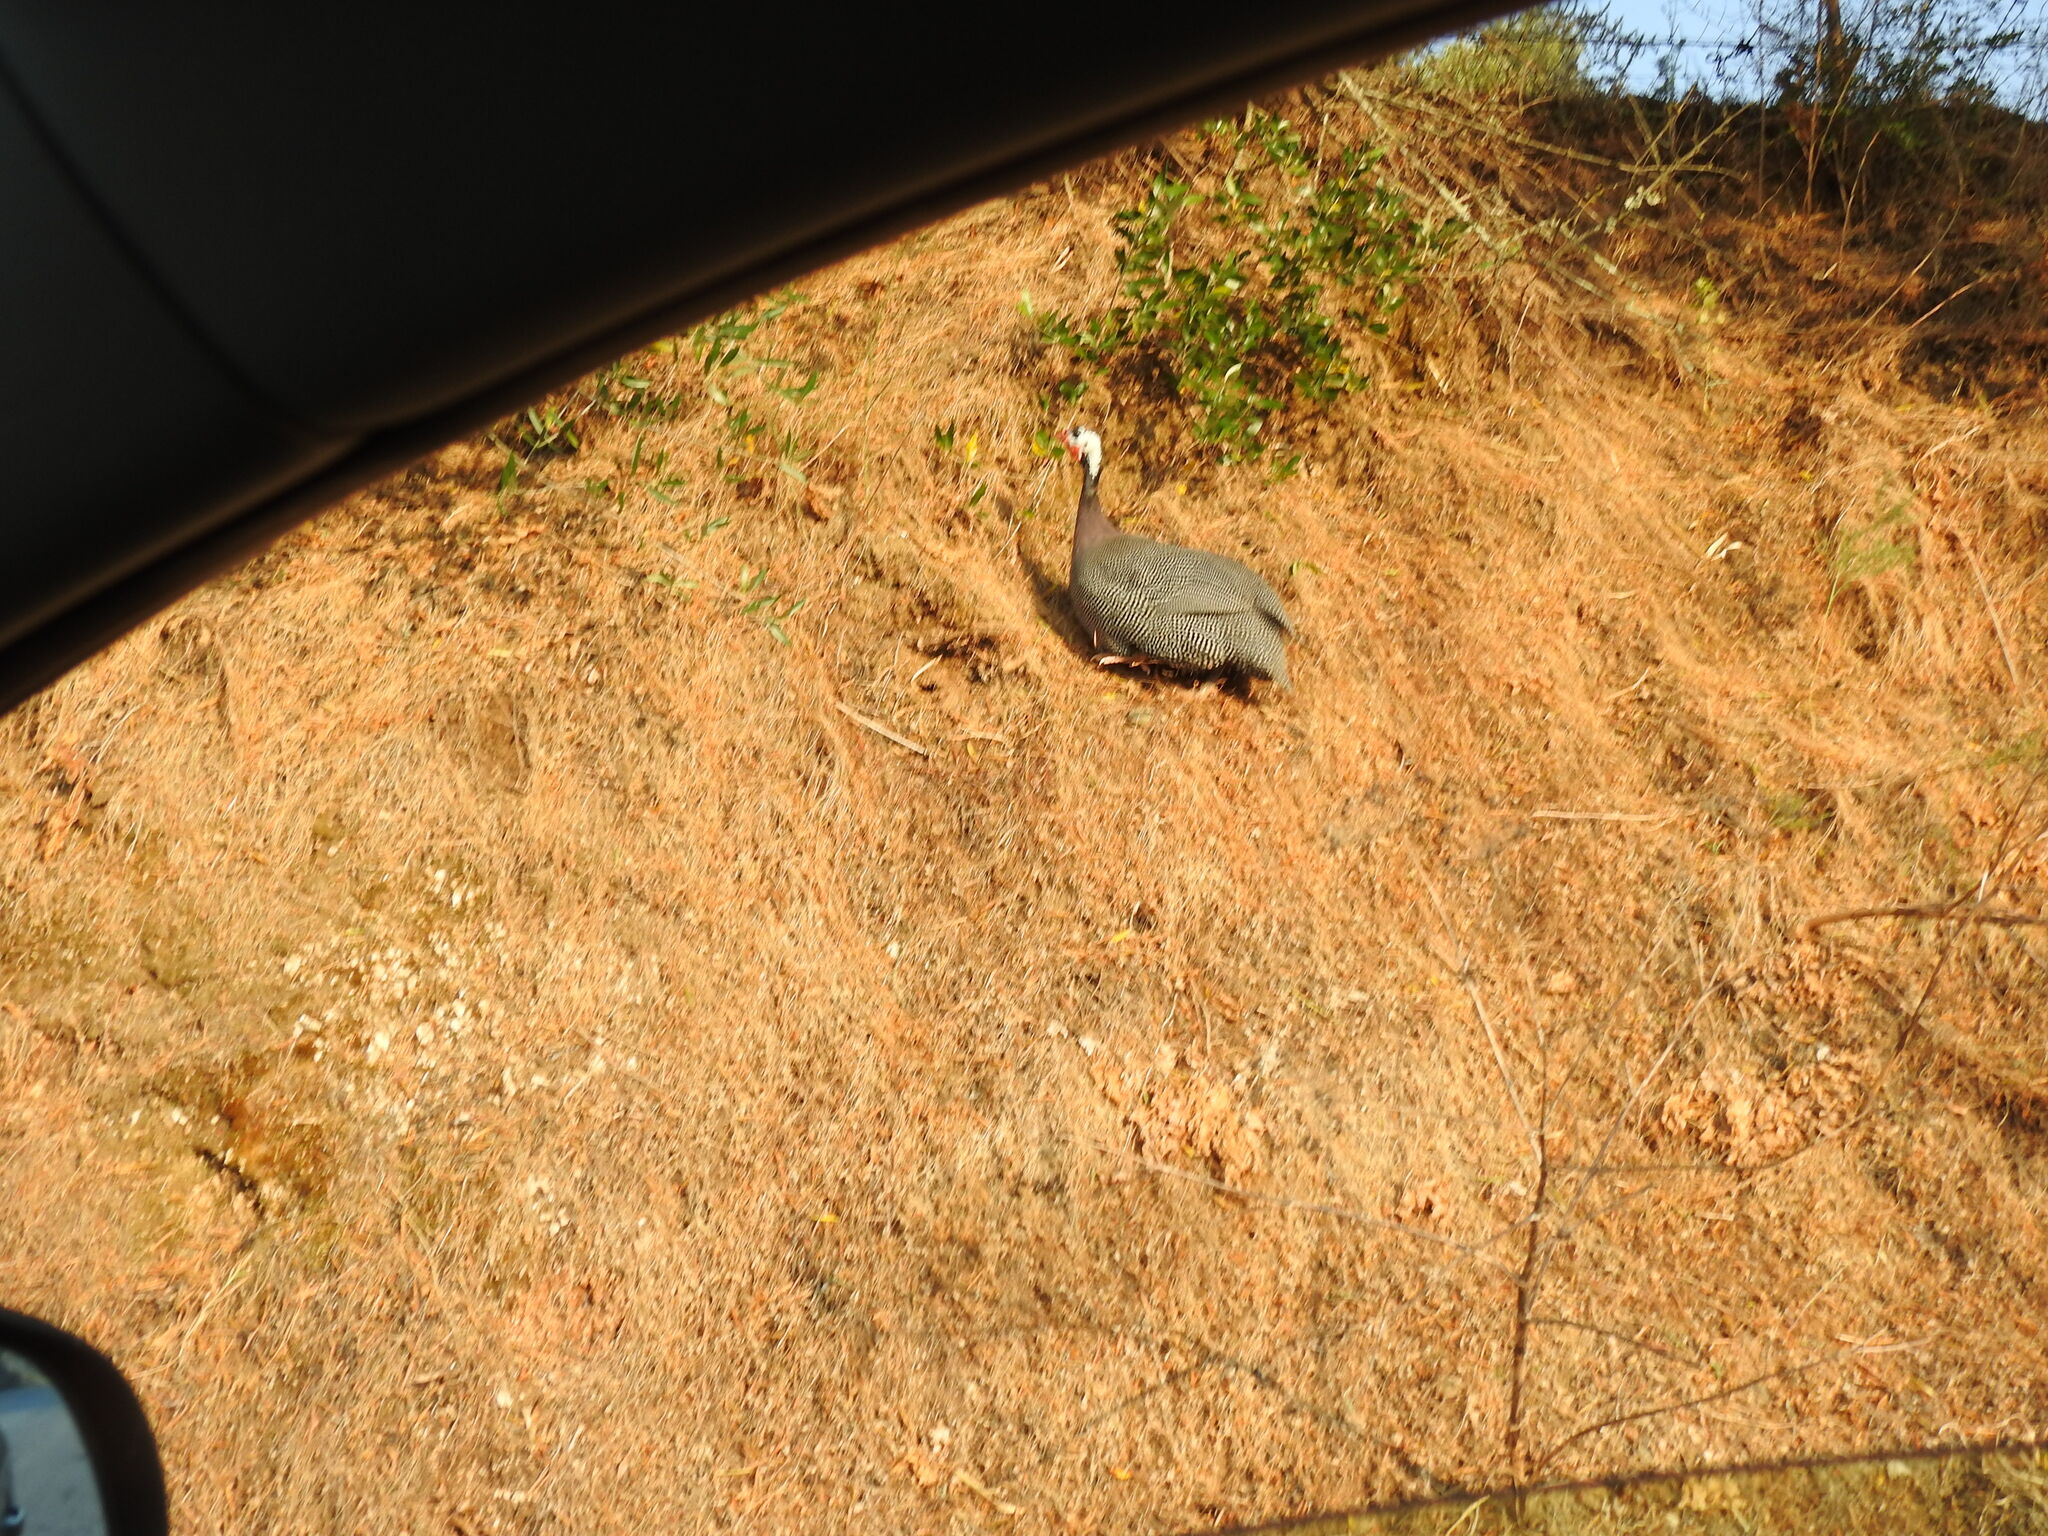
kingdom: Animalia
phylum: Chordata
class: Aves
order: Galliformes
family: Numididae
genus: Numida
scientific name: Numida meleagris
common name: Helmeted guineafowl
